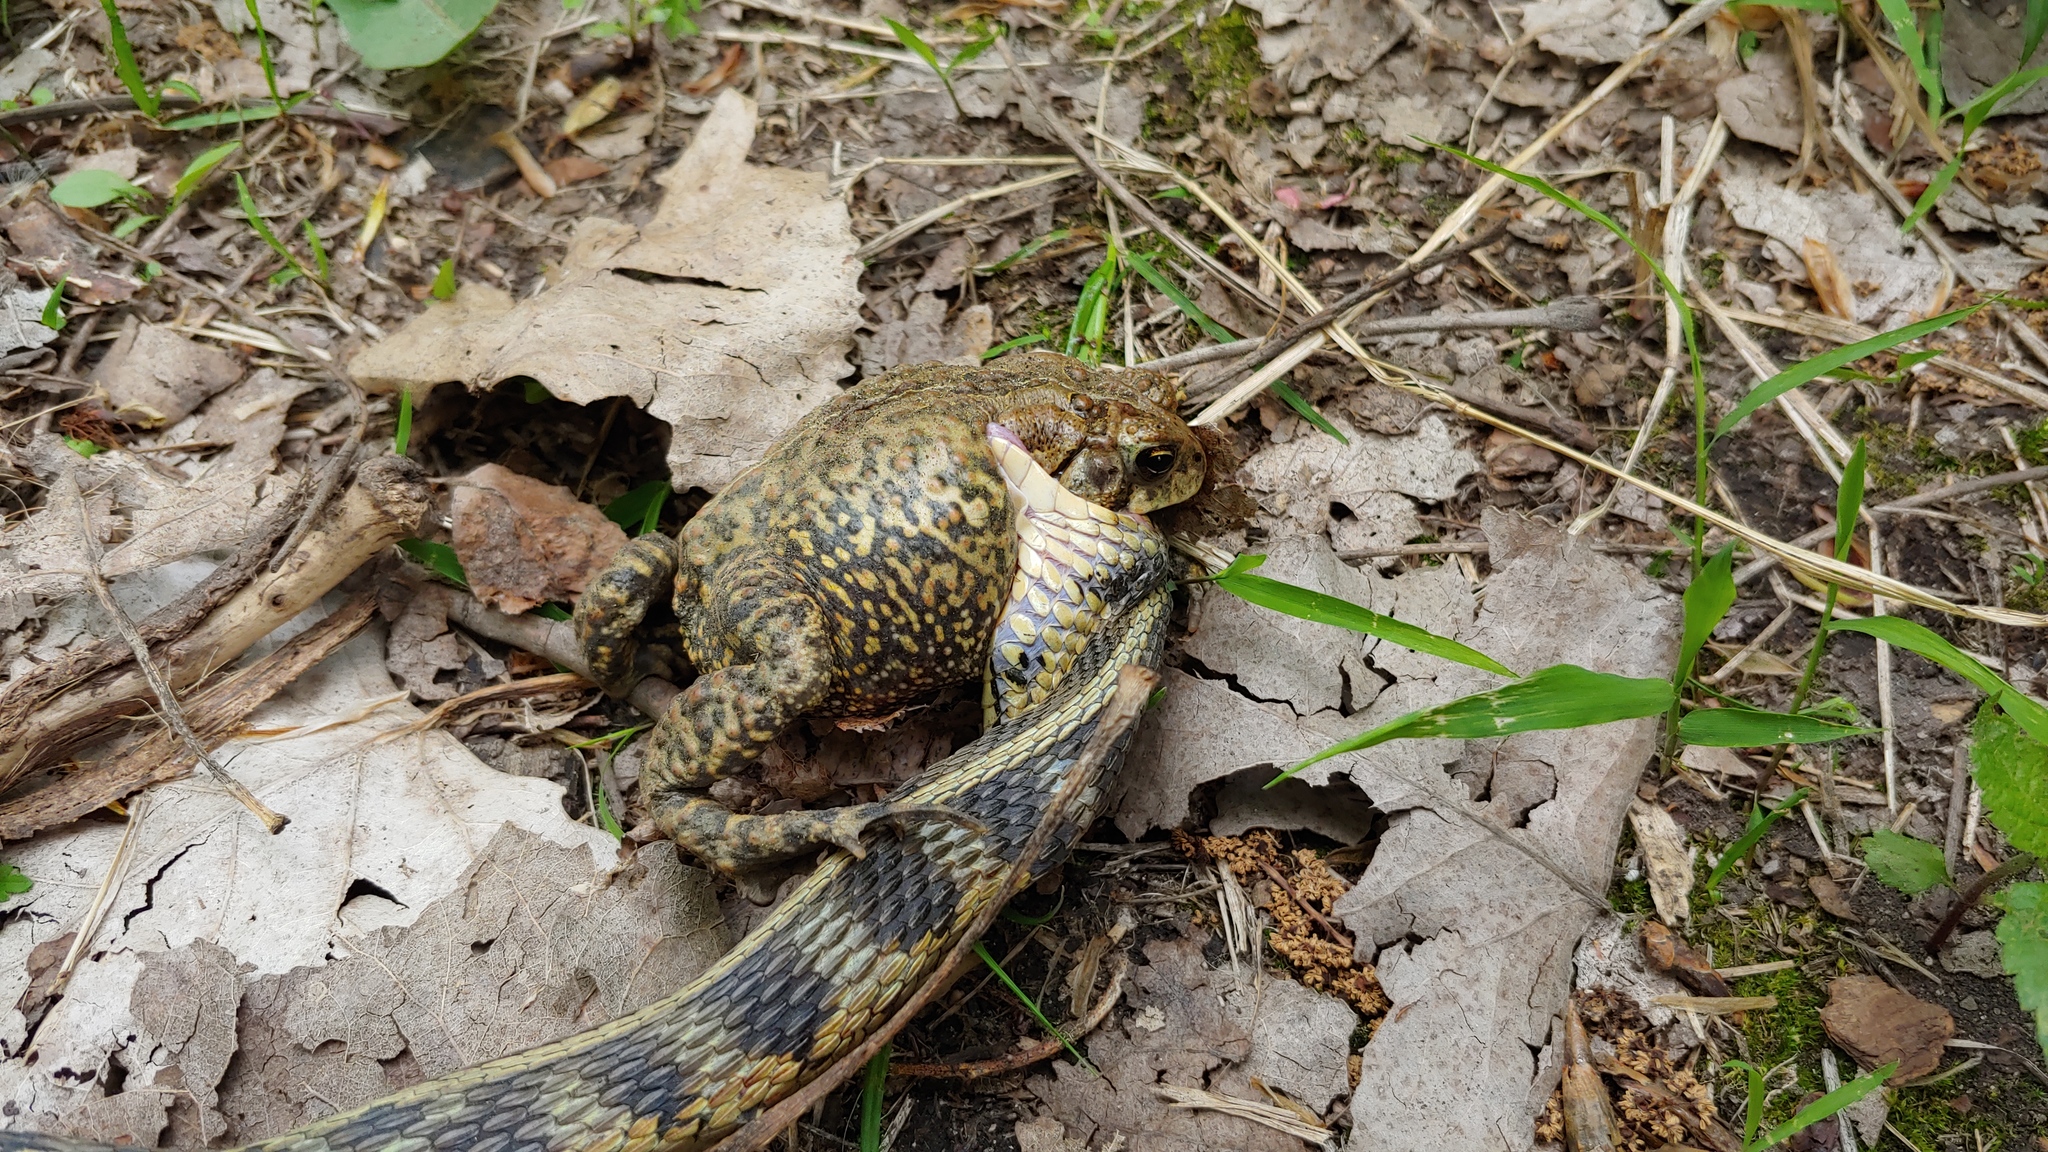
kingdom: Animalia
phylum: Chordata
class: Squamata
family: Colubridae
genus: Thamnophis
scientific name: Thamnophis sirtalis
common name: Common garter snake
